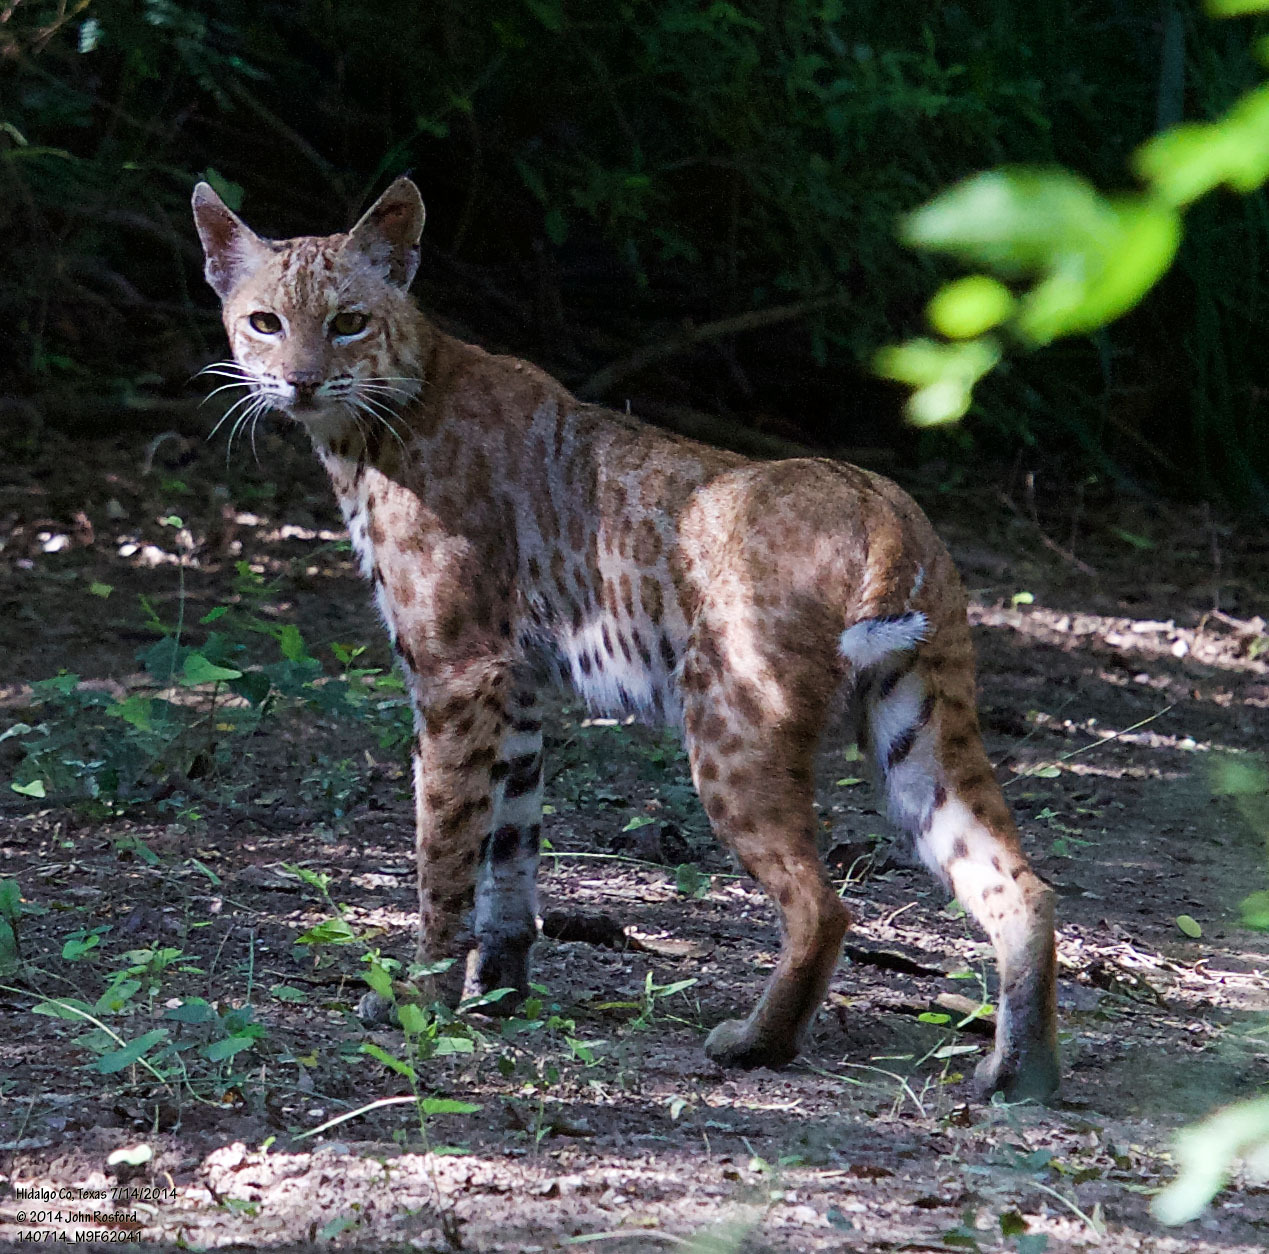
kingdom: Animalia
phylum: Chordata
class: Mammalia
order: Carnivora
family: Felidae
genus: Lynx
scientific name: Lynx rufus
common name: Bobcat
